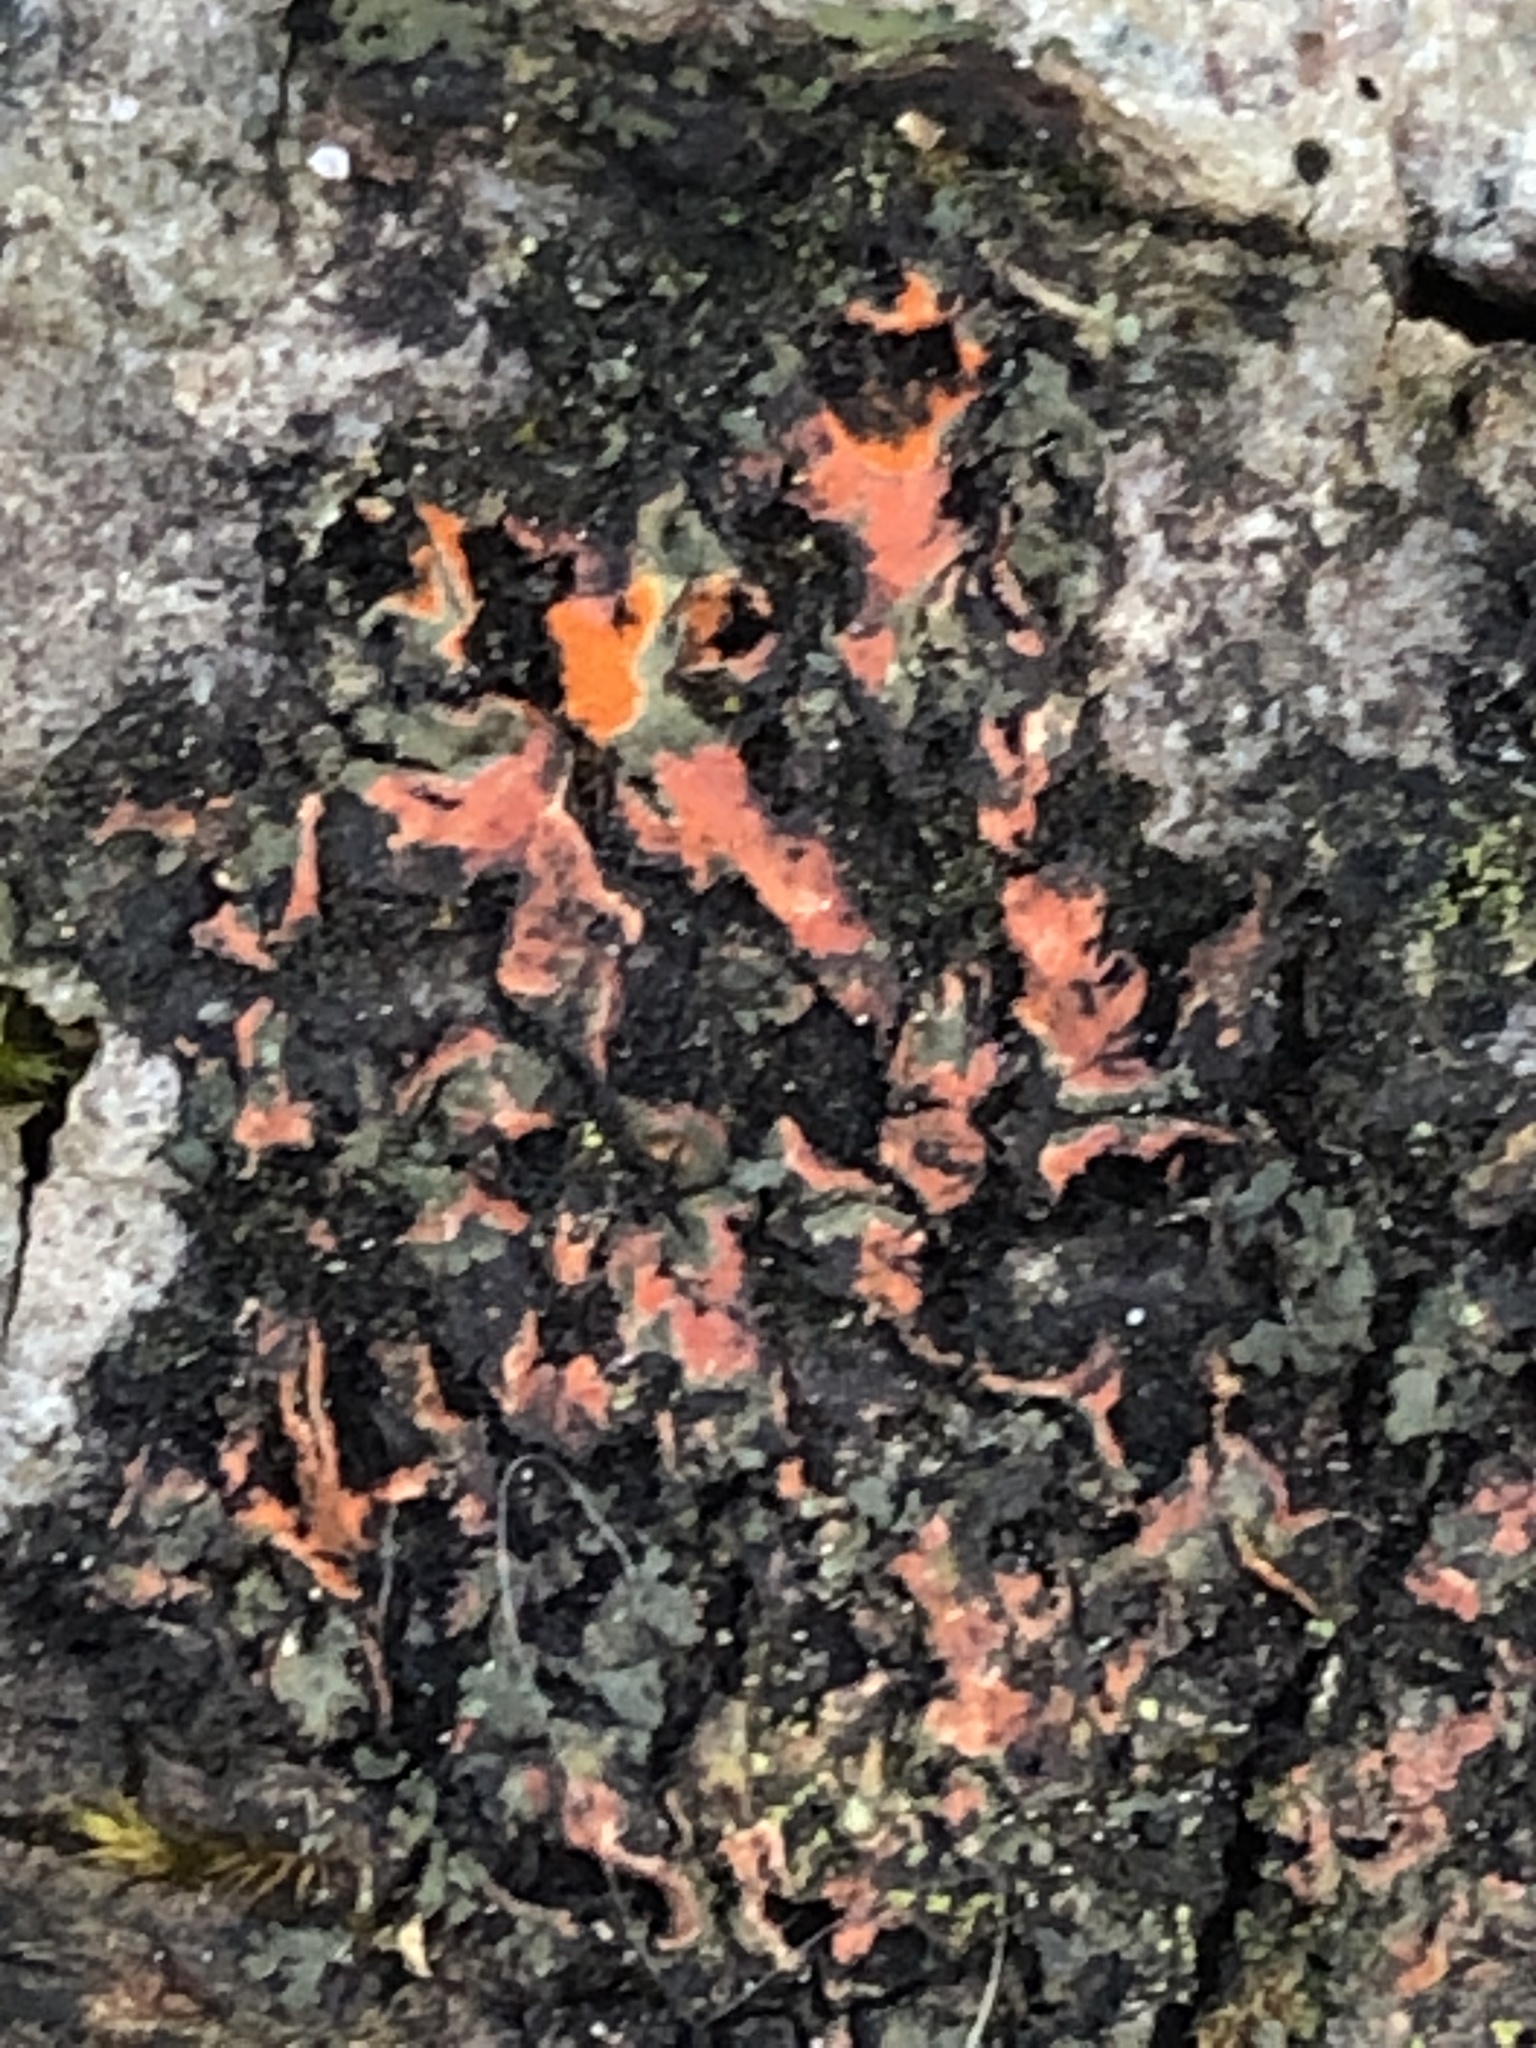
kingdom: Fungi
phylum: Ascomycota
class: Lecanoromycetes
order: Caliciales
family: Physciaceae
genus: Phaeophyscia
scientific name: Phaeophyscia rubropulchra
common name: Orange-cored shadow lichen
